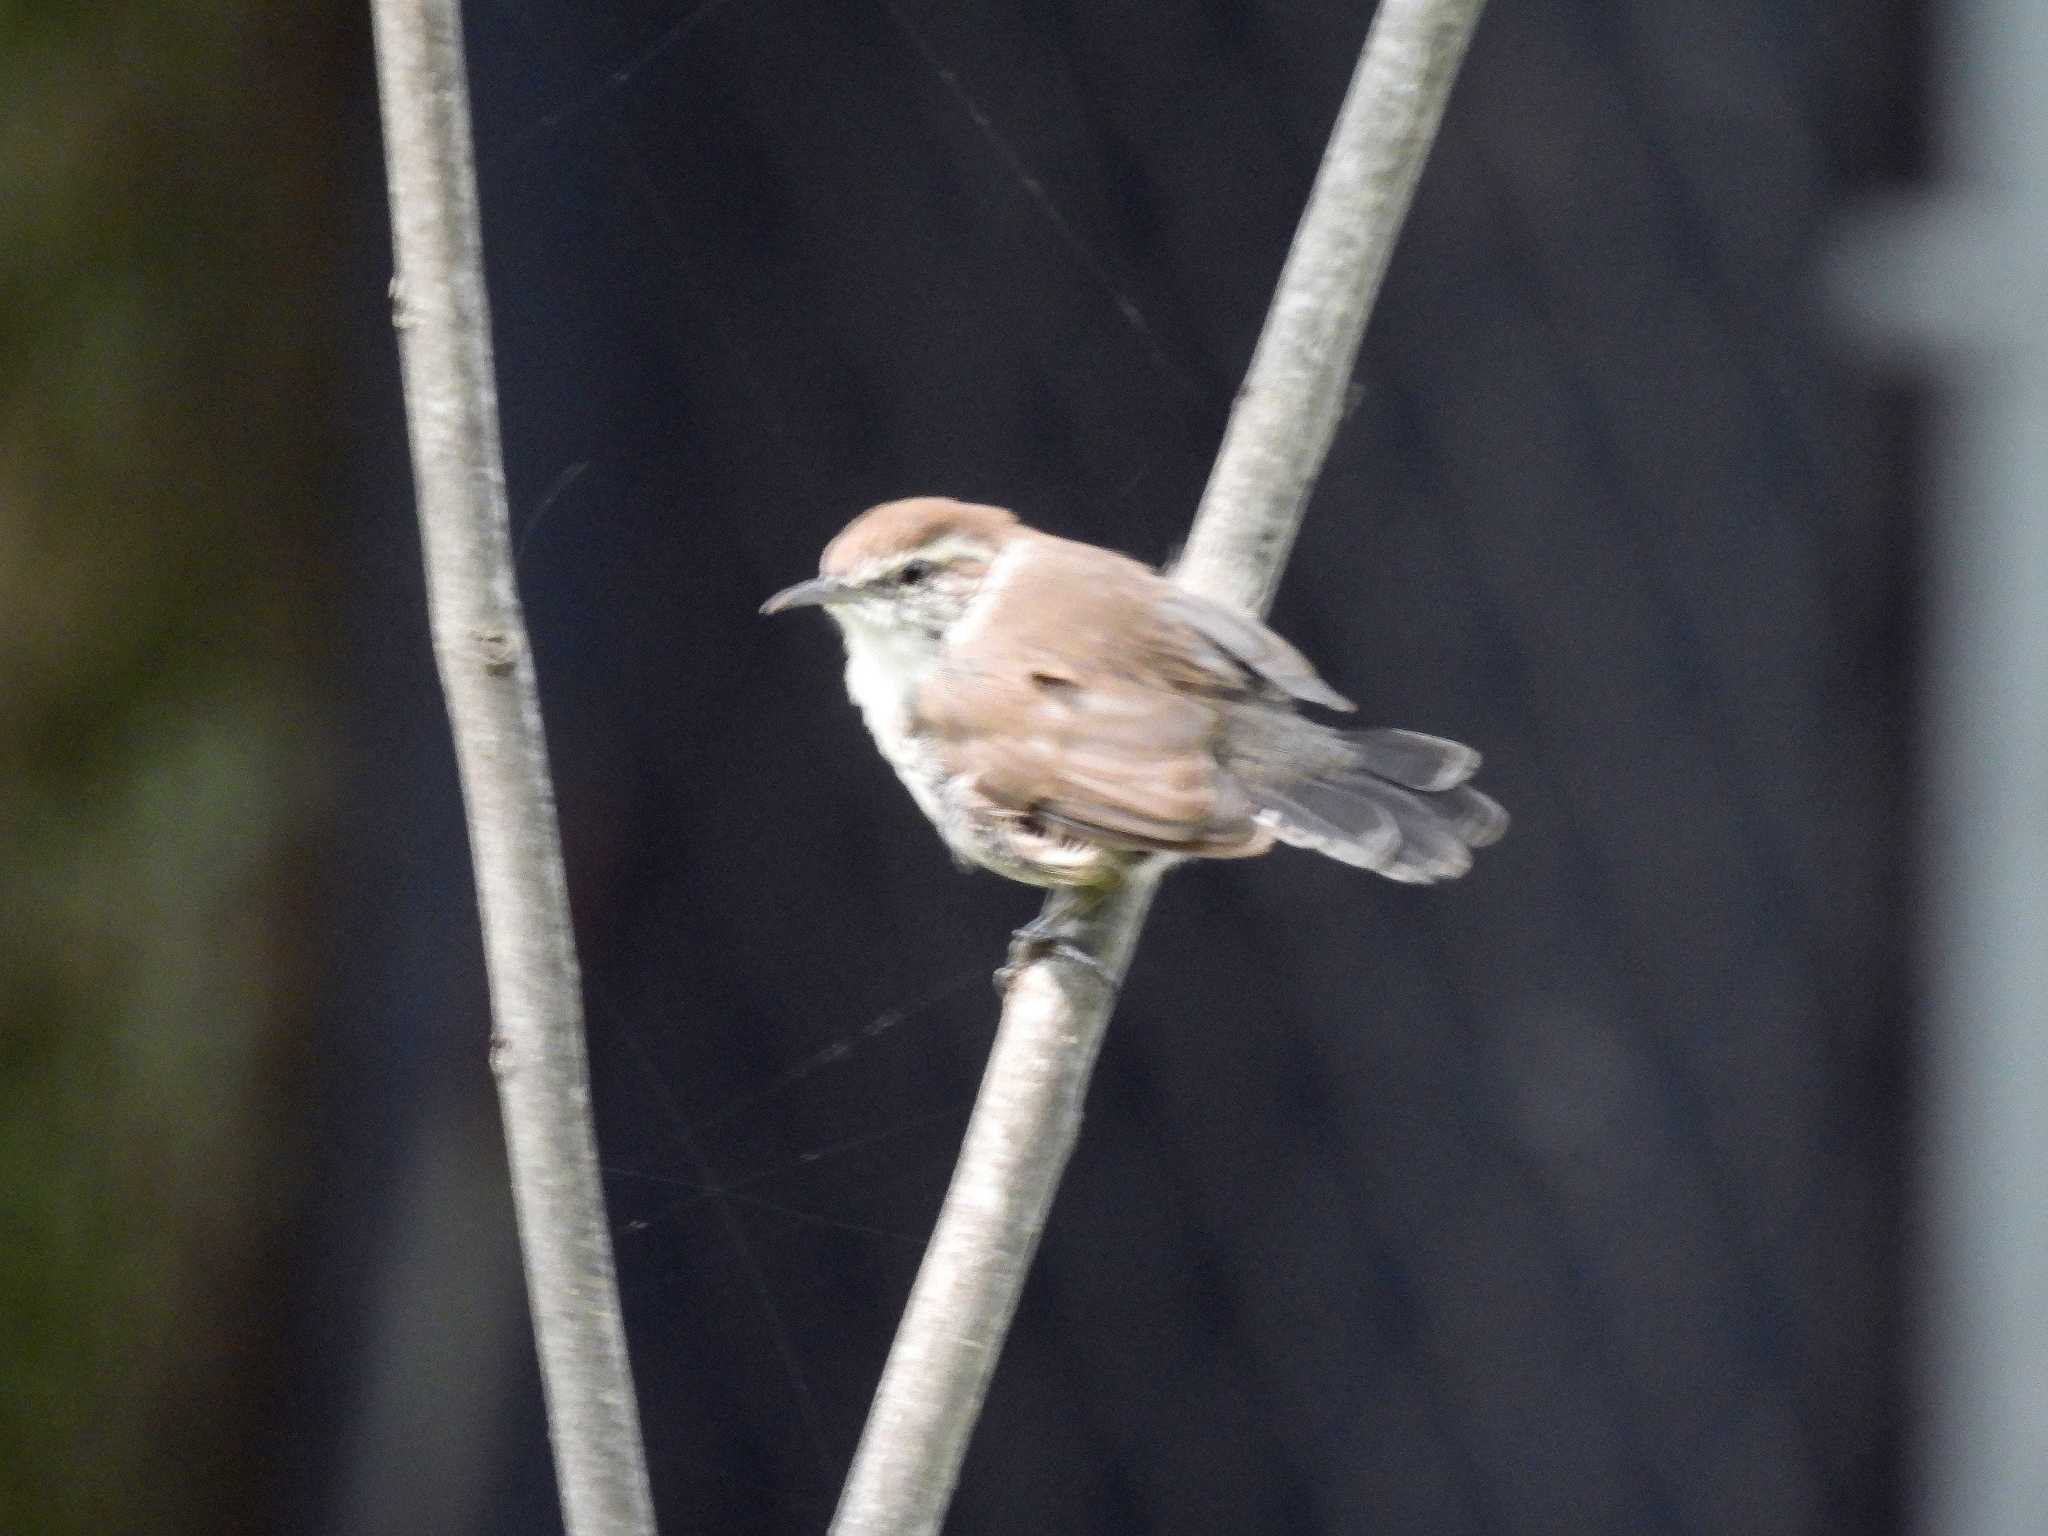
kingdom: Animalia
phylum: Chordata
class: Aves
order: Passeriformes
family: Troglodytidae
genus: Thryomanes
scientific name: Thryomanes bewickii
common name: Bewick's wren
